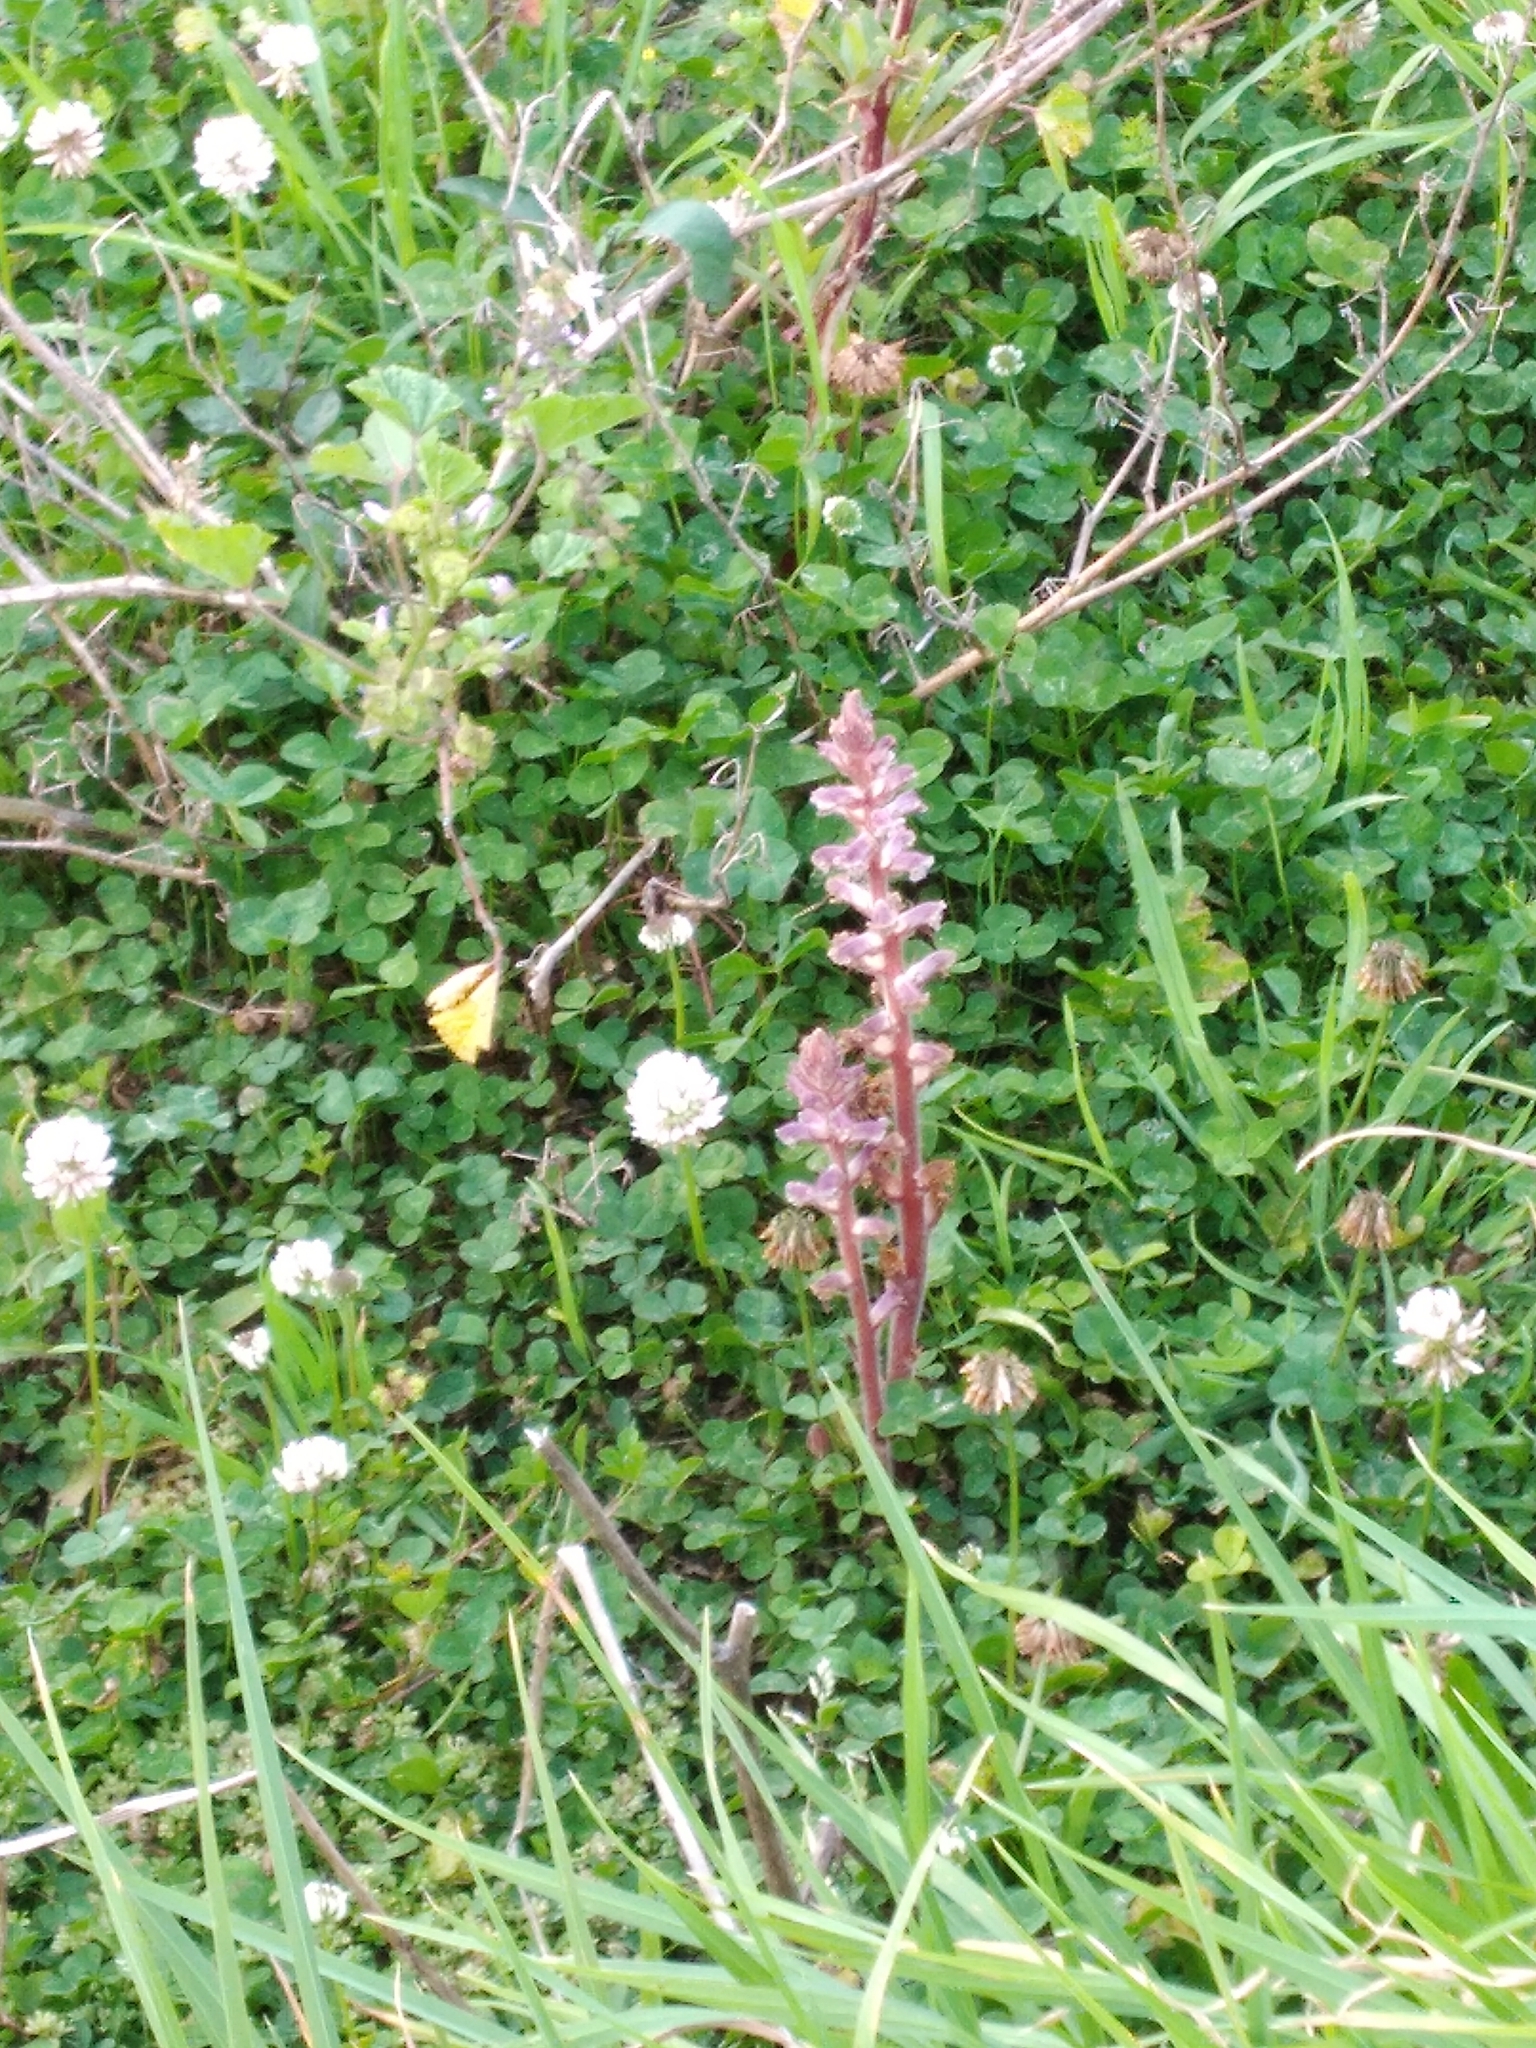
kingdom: Plantae
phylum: Tracheophyta
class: Magnoliopsida
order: Lamiales
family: Orobanchaceae
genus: Orobanche
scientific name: Orobanche minor
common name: Common broomrape
